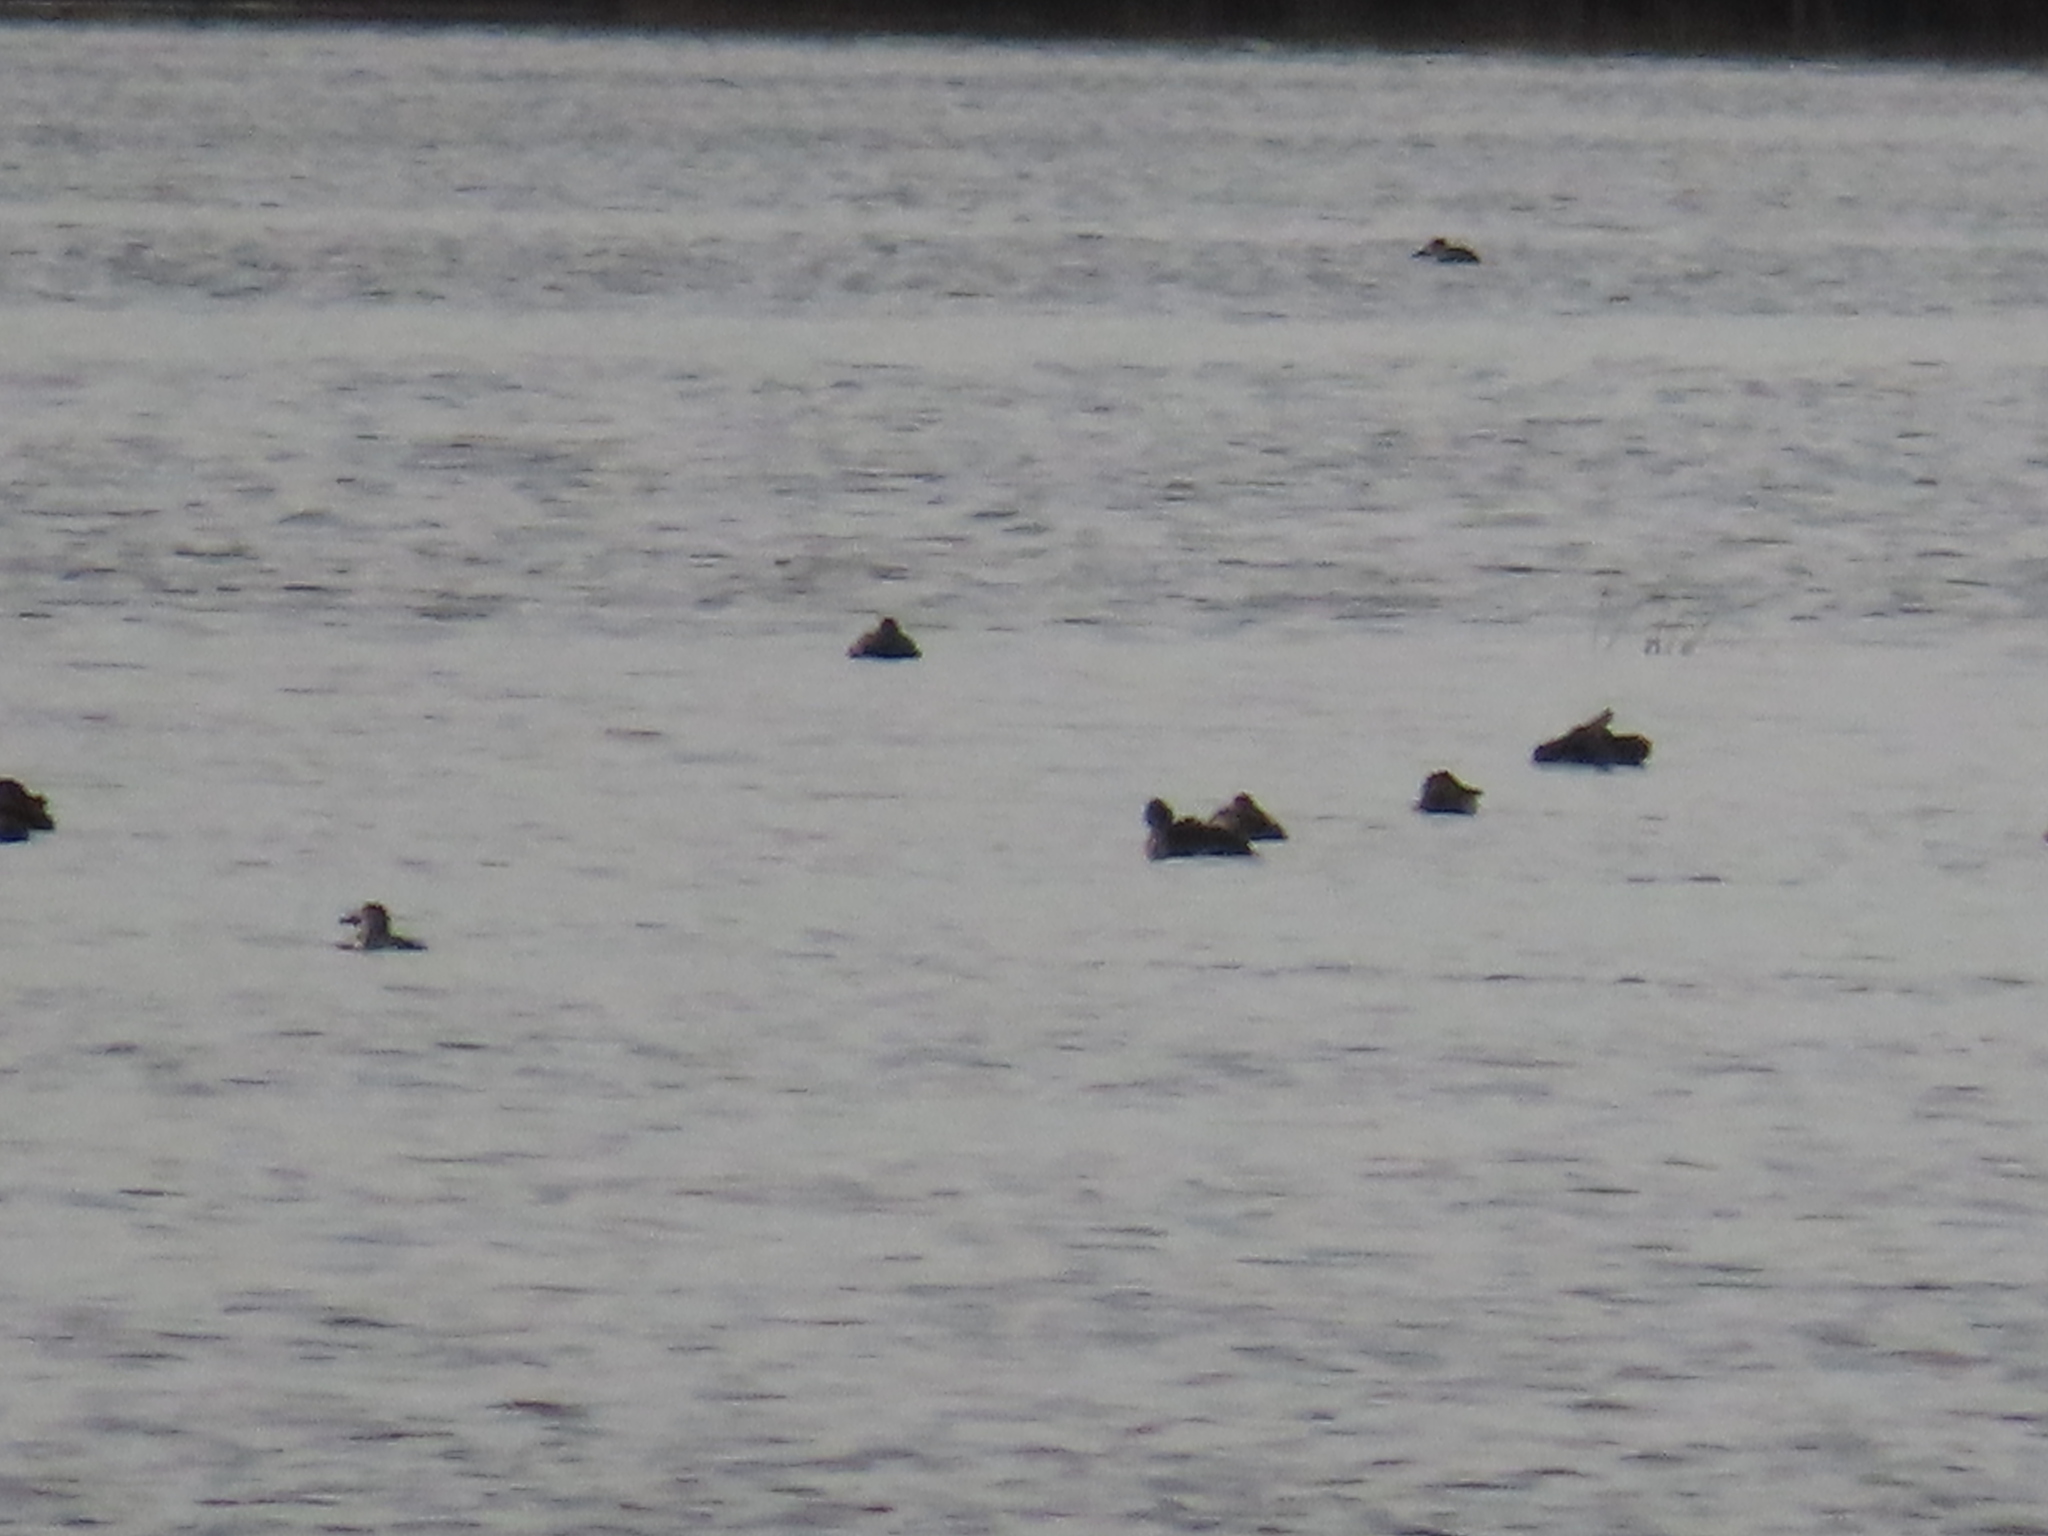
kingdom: Animalia
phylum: Chordata
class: Aves
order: Anseriformes
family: Anatidae
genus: Oxyura
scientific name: Oxyura jamaicensis
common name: Ruddy duck
